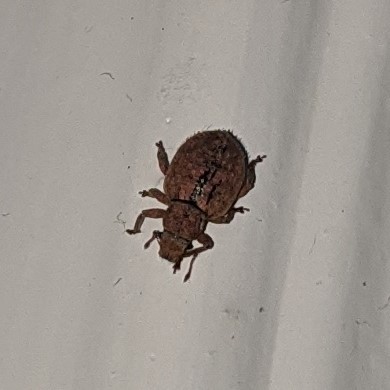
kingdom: Animalia
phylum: Arthropoda
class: Insecta
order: Coleoptera
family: Curculionidae
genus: Strophosoma
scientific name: Strophosoma melanogrammum
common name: Weevil
